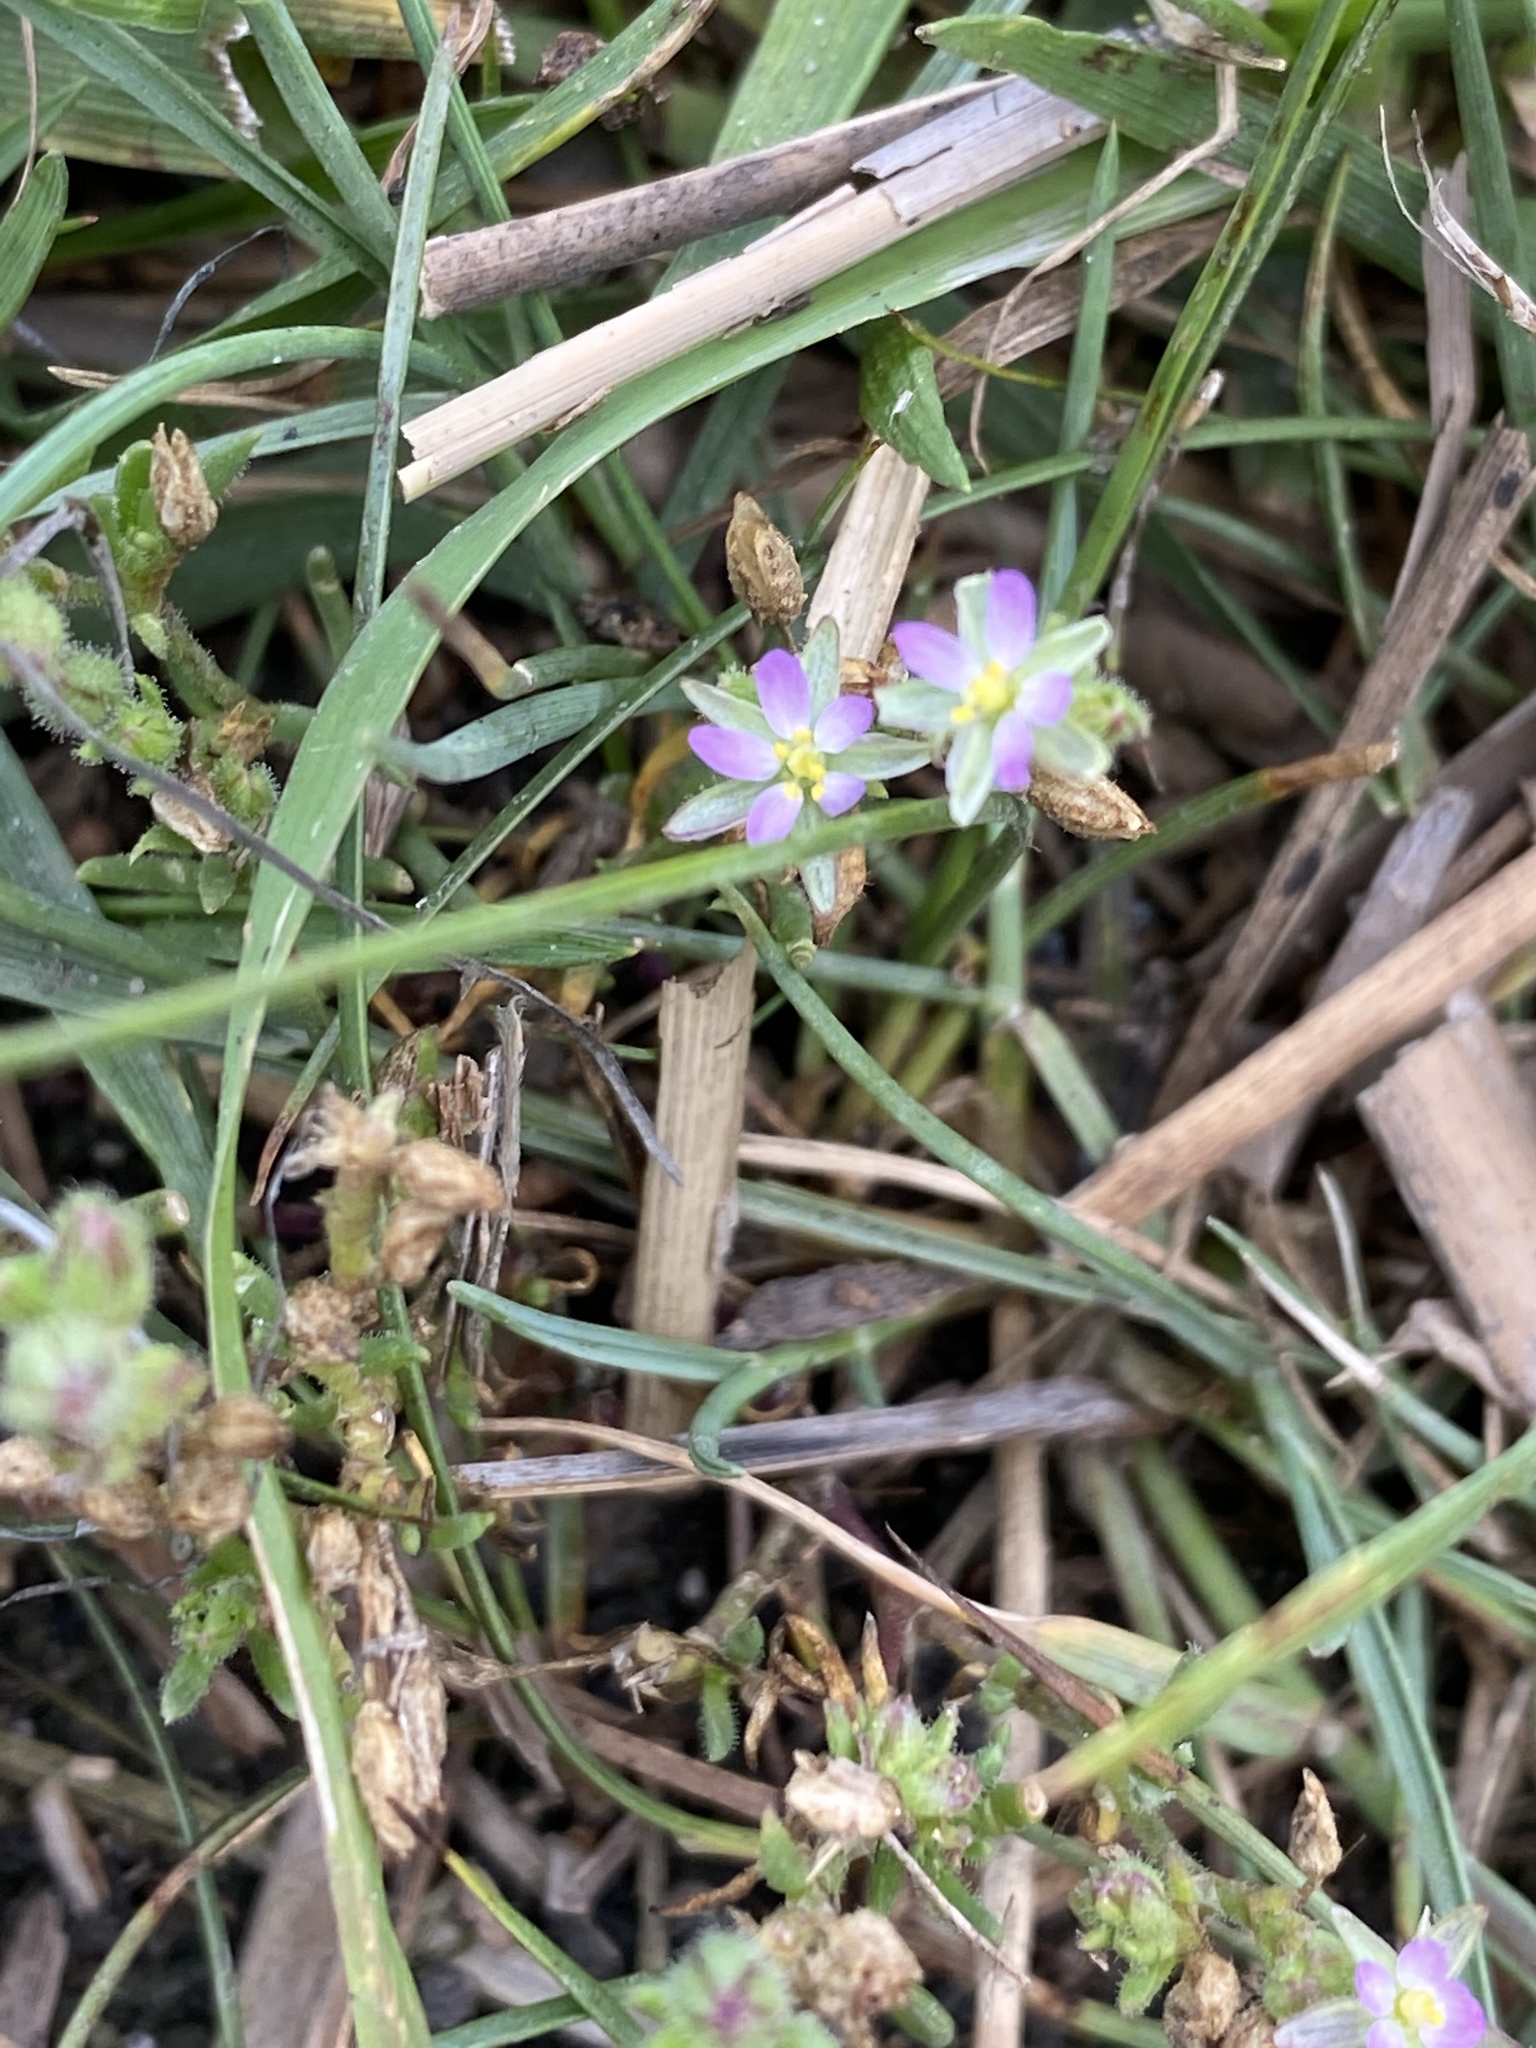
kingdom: Plantae
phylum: Tracheophyta
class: Magnoliopsida
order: Caryophyllales
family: Caryophyllaceae
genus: Spergularia
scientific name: Spergularia marina
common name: Lesser sea-spurrey
